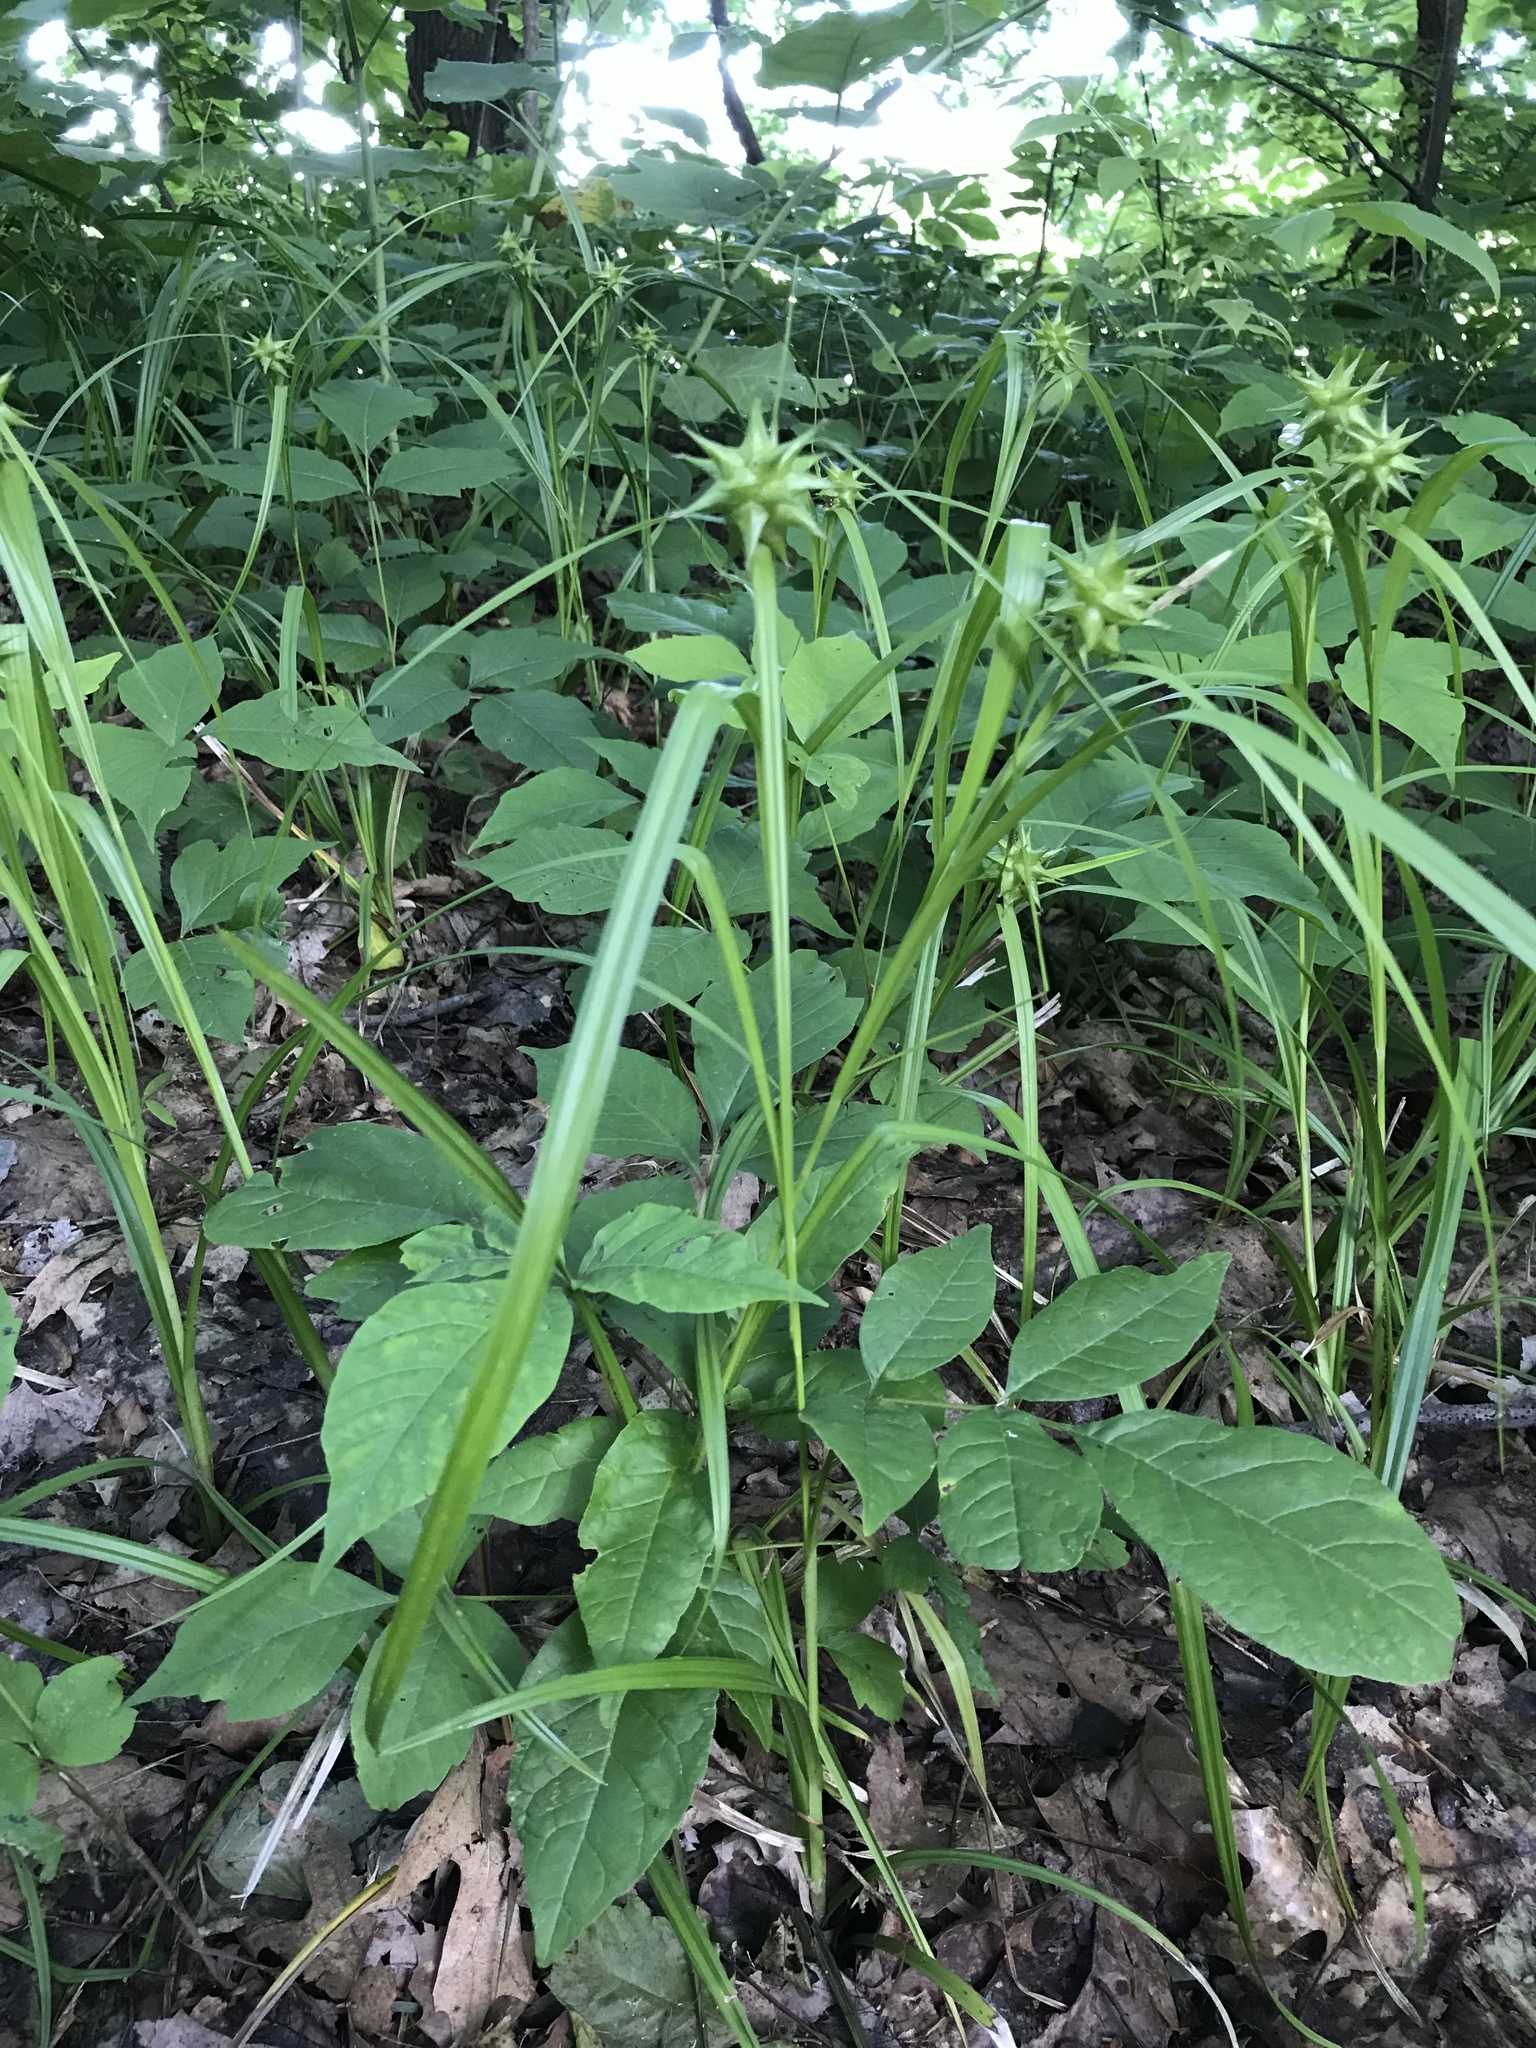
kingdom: Plantae
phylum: Tracheophyta
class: Liliopsida
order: Poales
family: Cyperaceae
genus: Carex
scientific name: Carex grayi
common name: Asa gray's sedge
